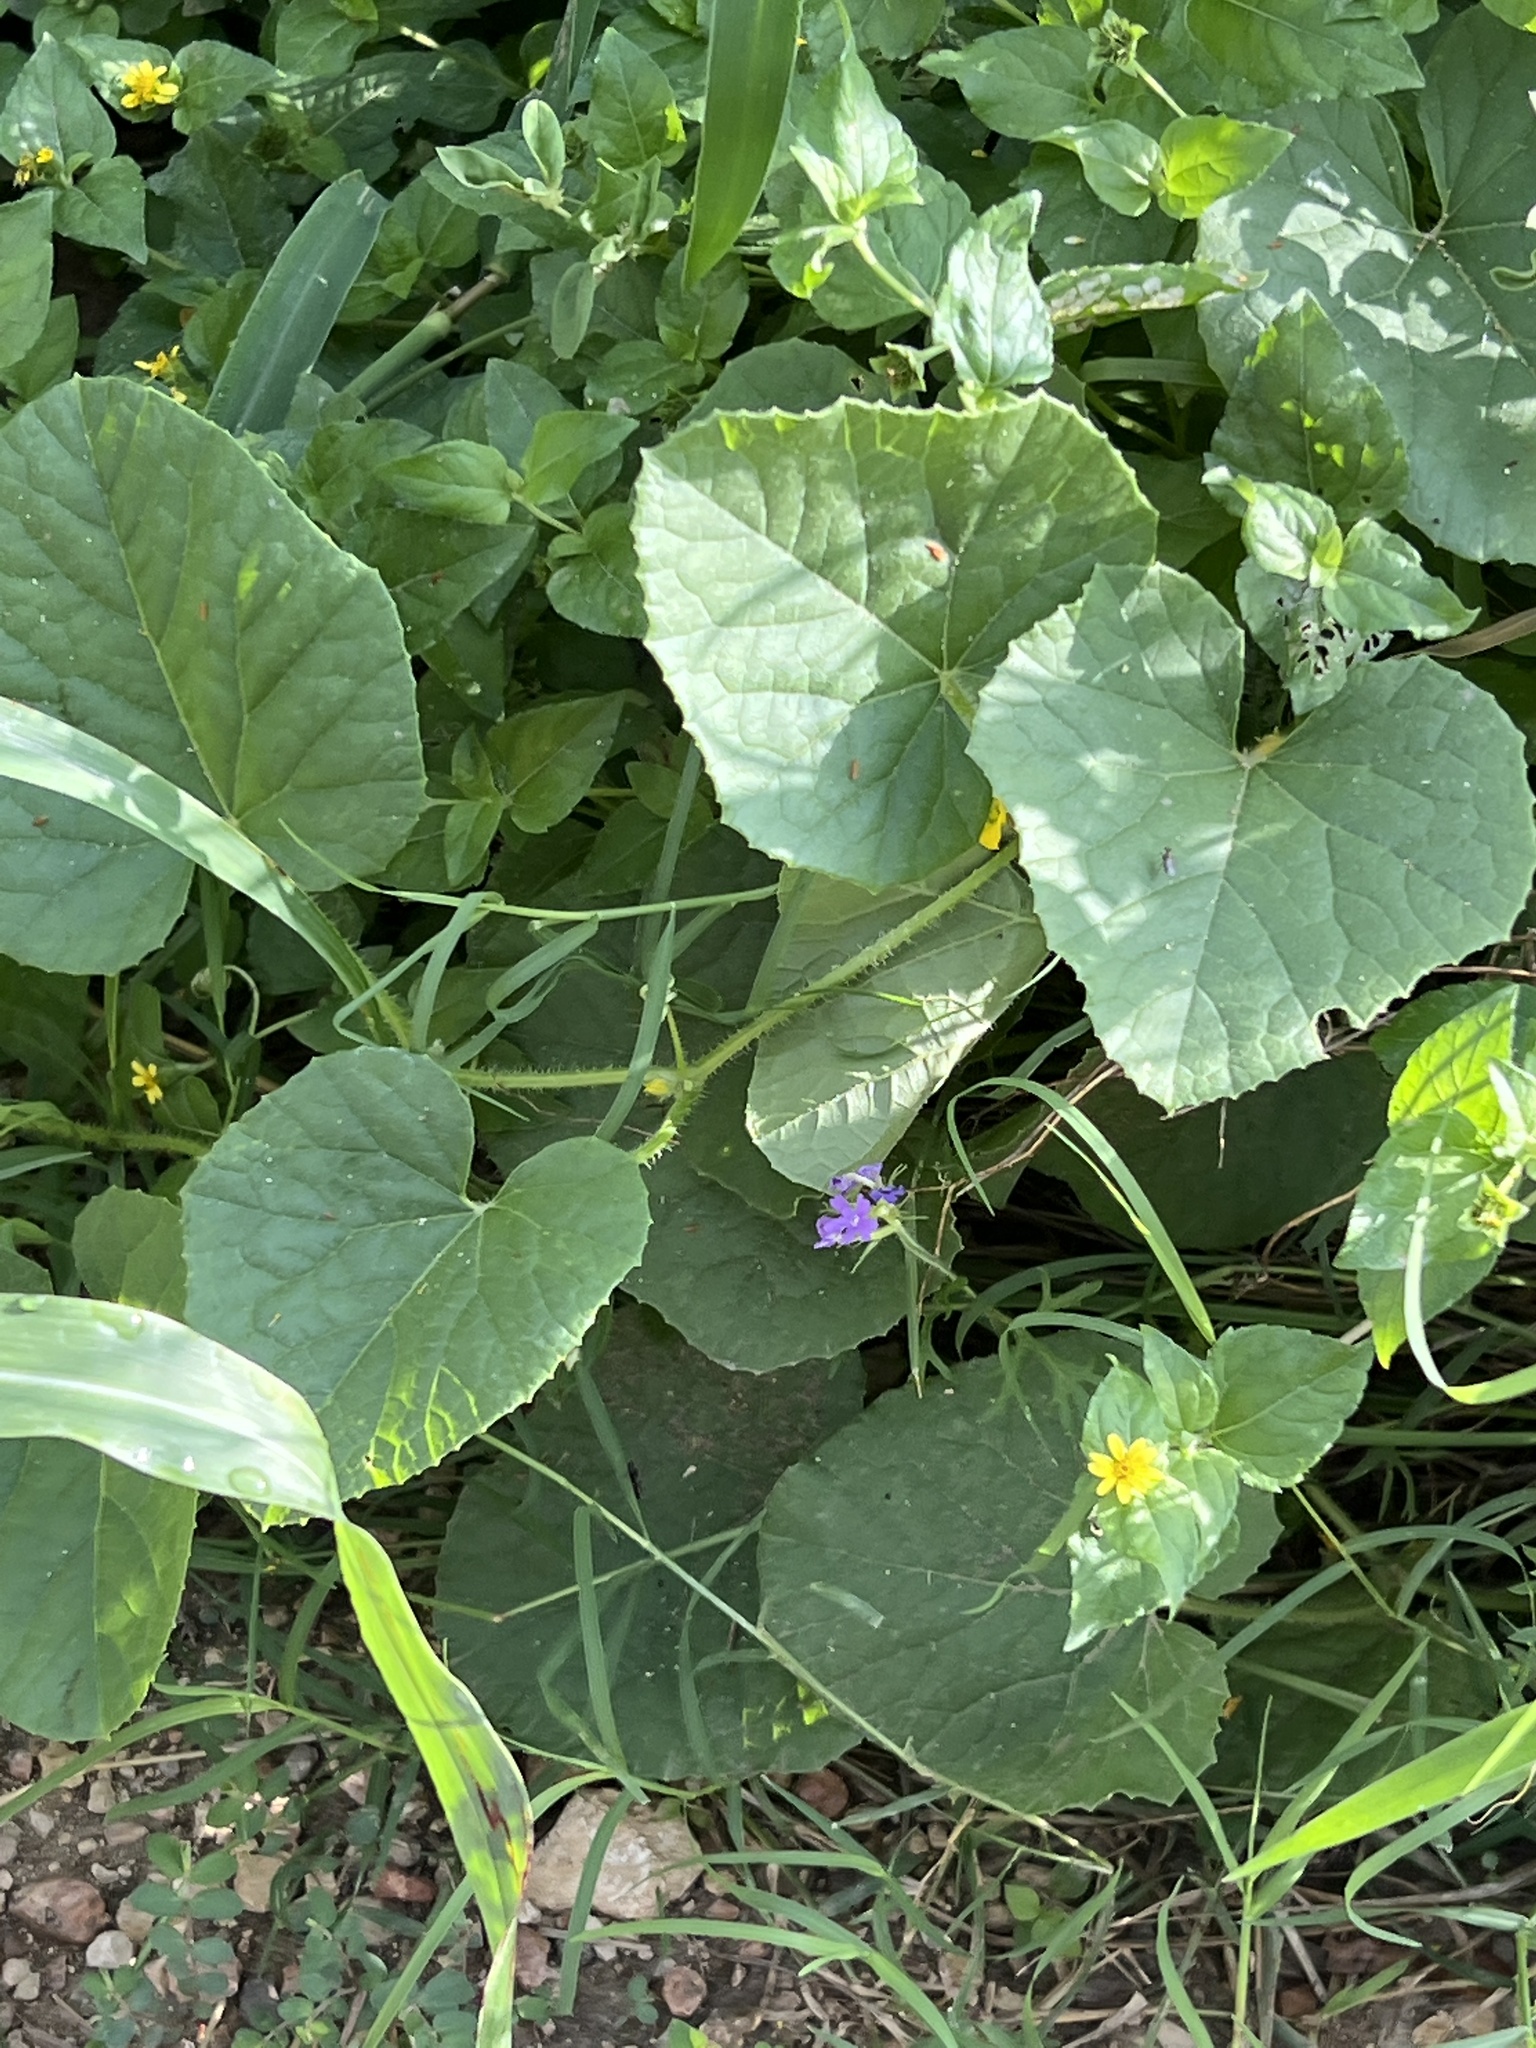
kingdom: Plantae
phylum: Tracheophyta
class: Magnoliopsida
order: Cucurbitales
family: Cucurbitaceae
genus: Cucumis
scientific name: Cucumis melo
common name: Melon
